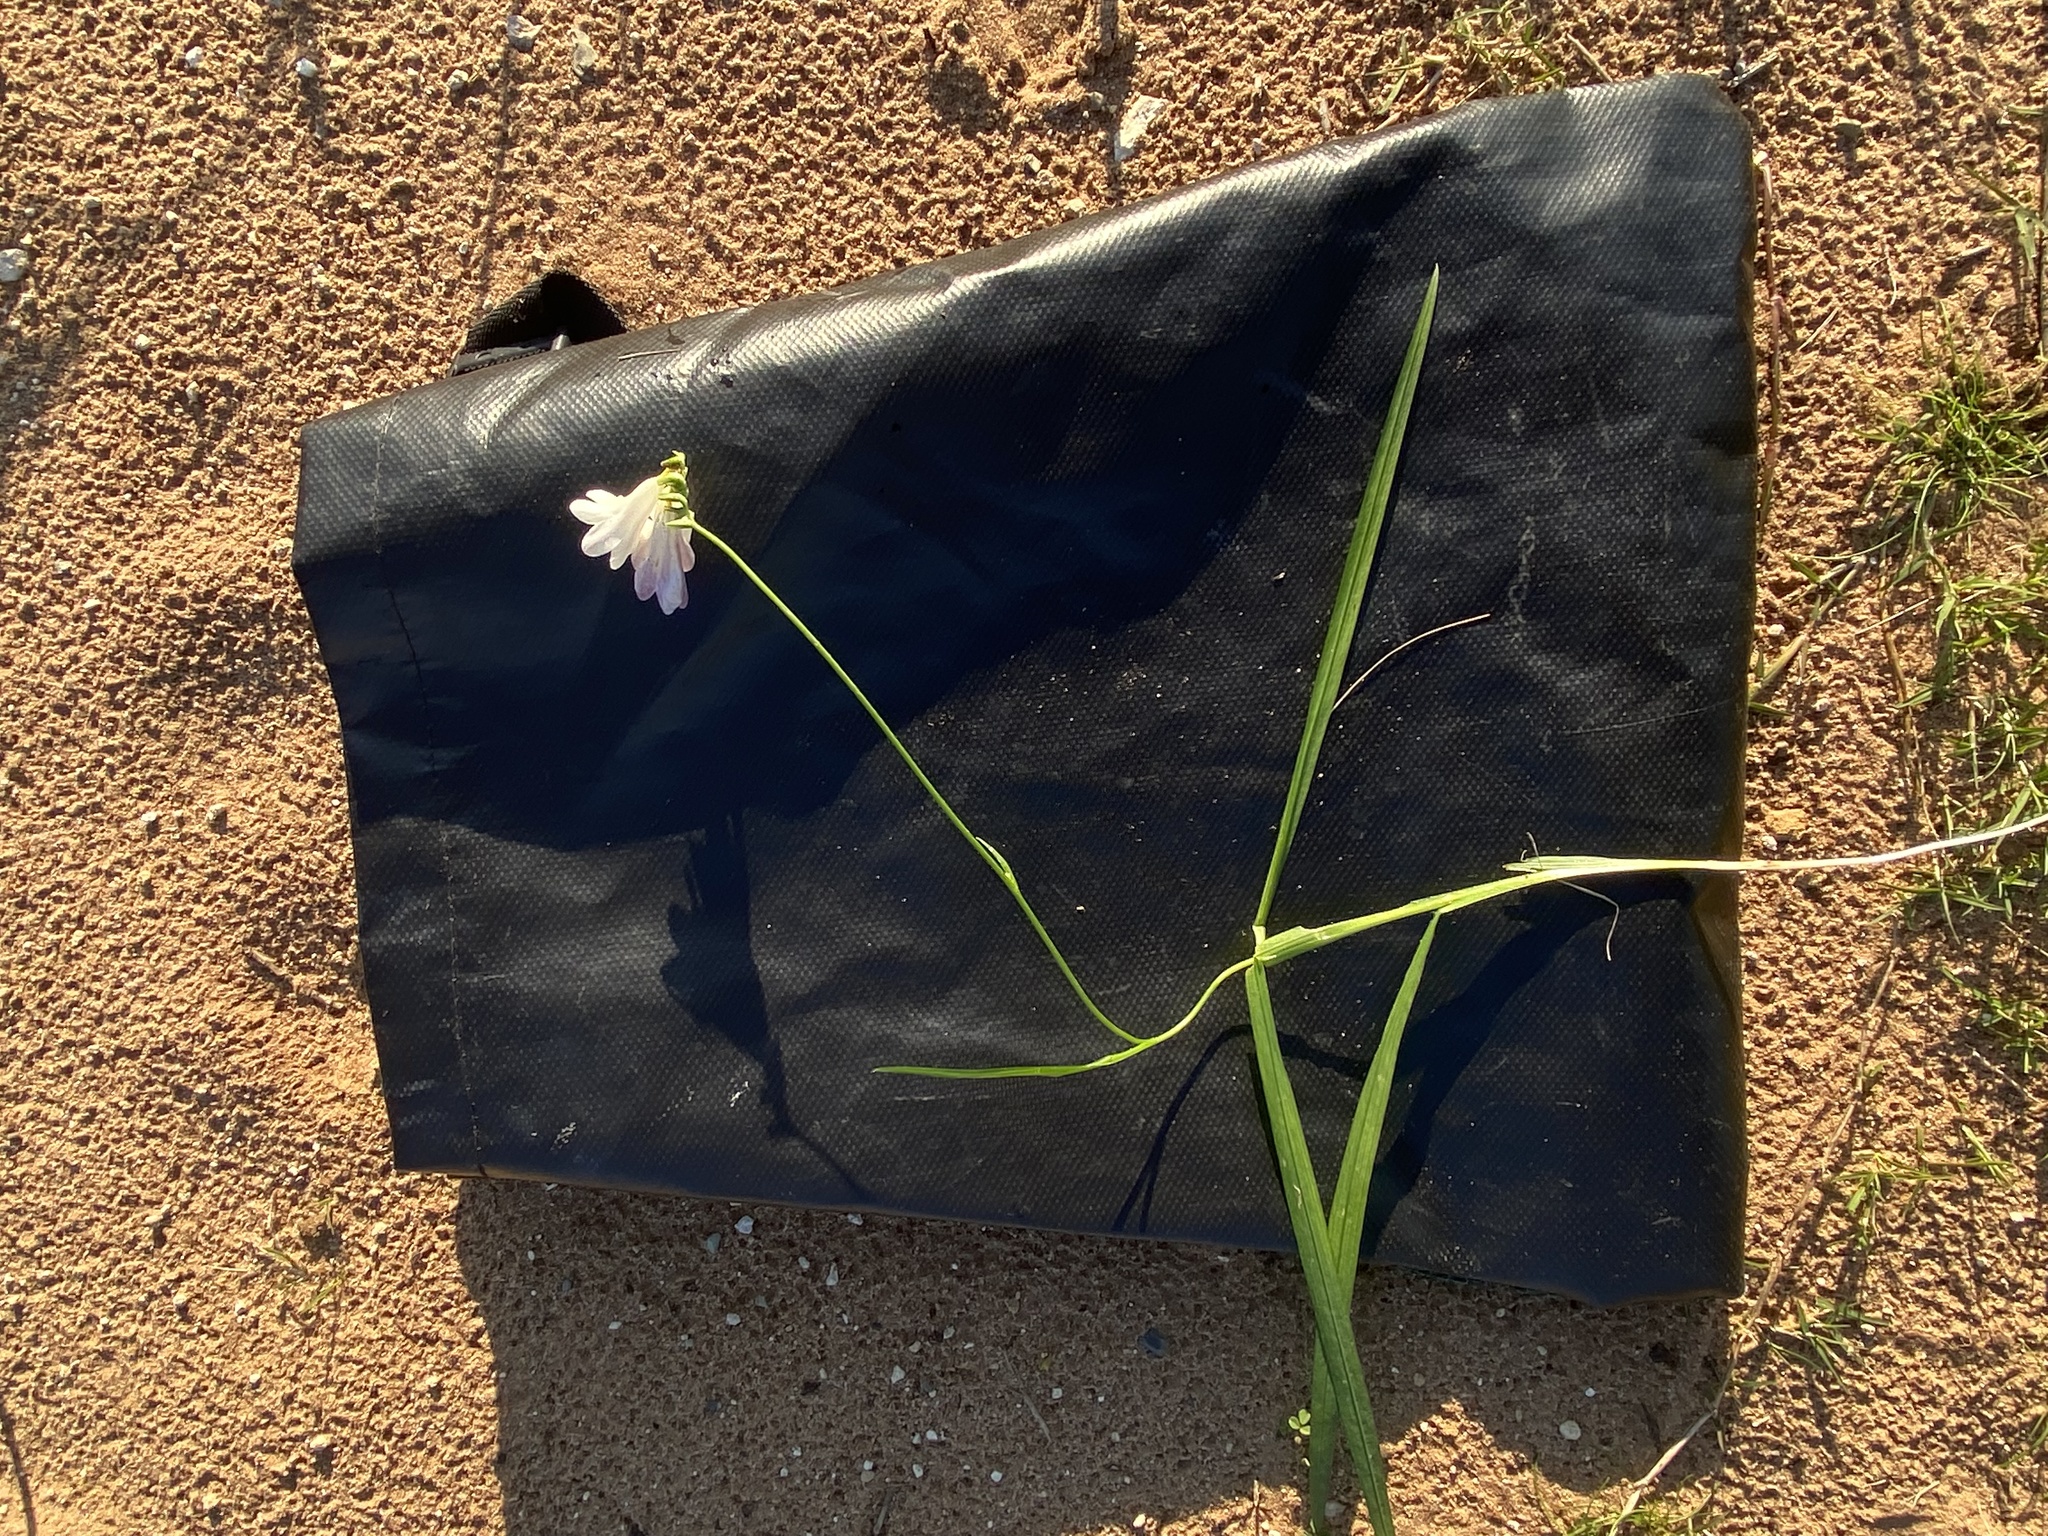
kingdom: Plantae
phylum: Tracheophyta
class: Liliopsida
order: Asparagales
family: Iridaceae
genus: Freesia
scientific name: Freesia leichtlinii
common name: Freesia
